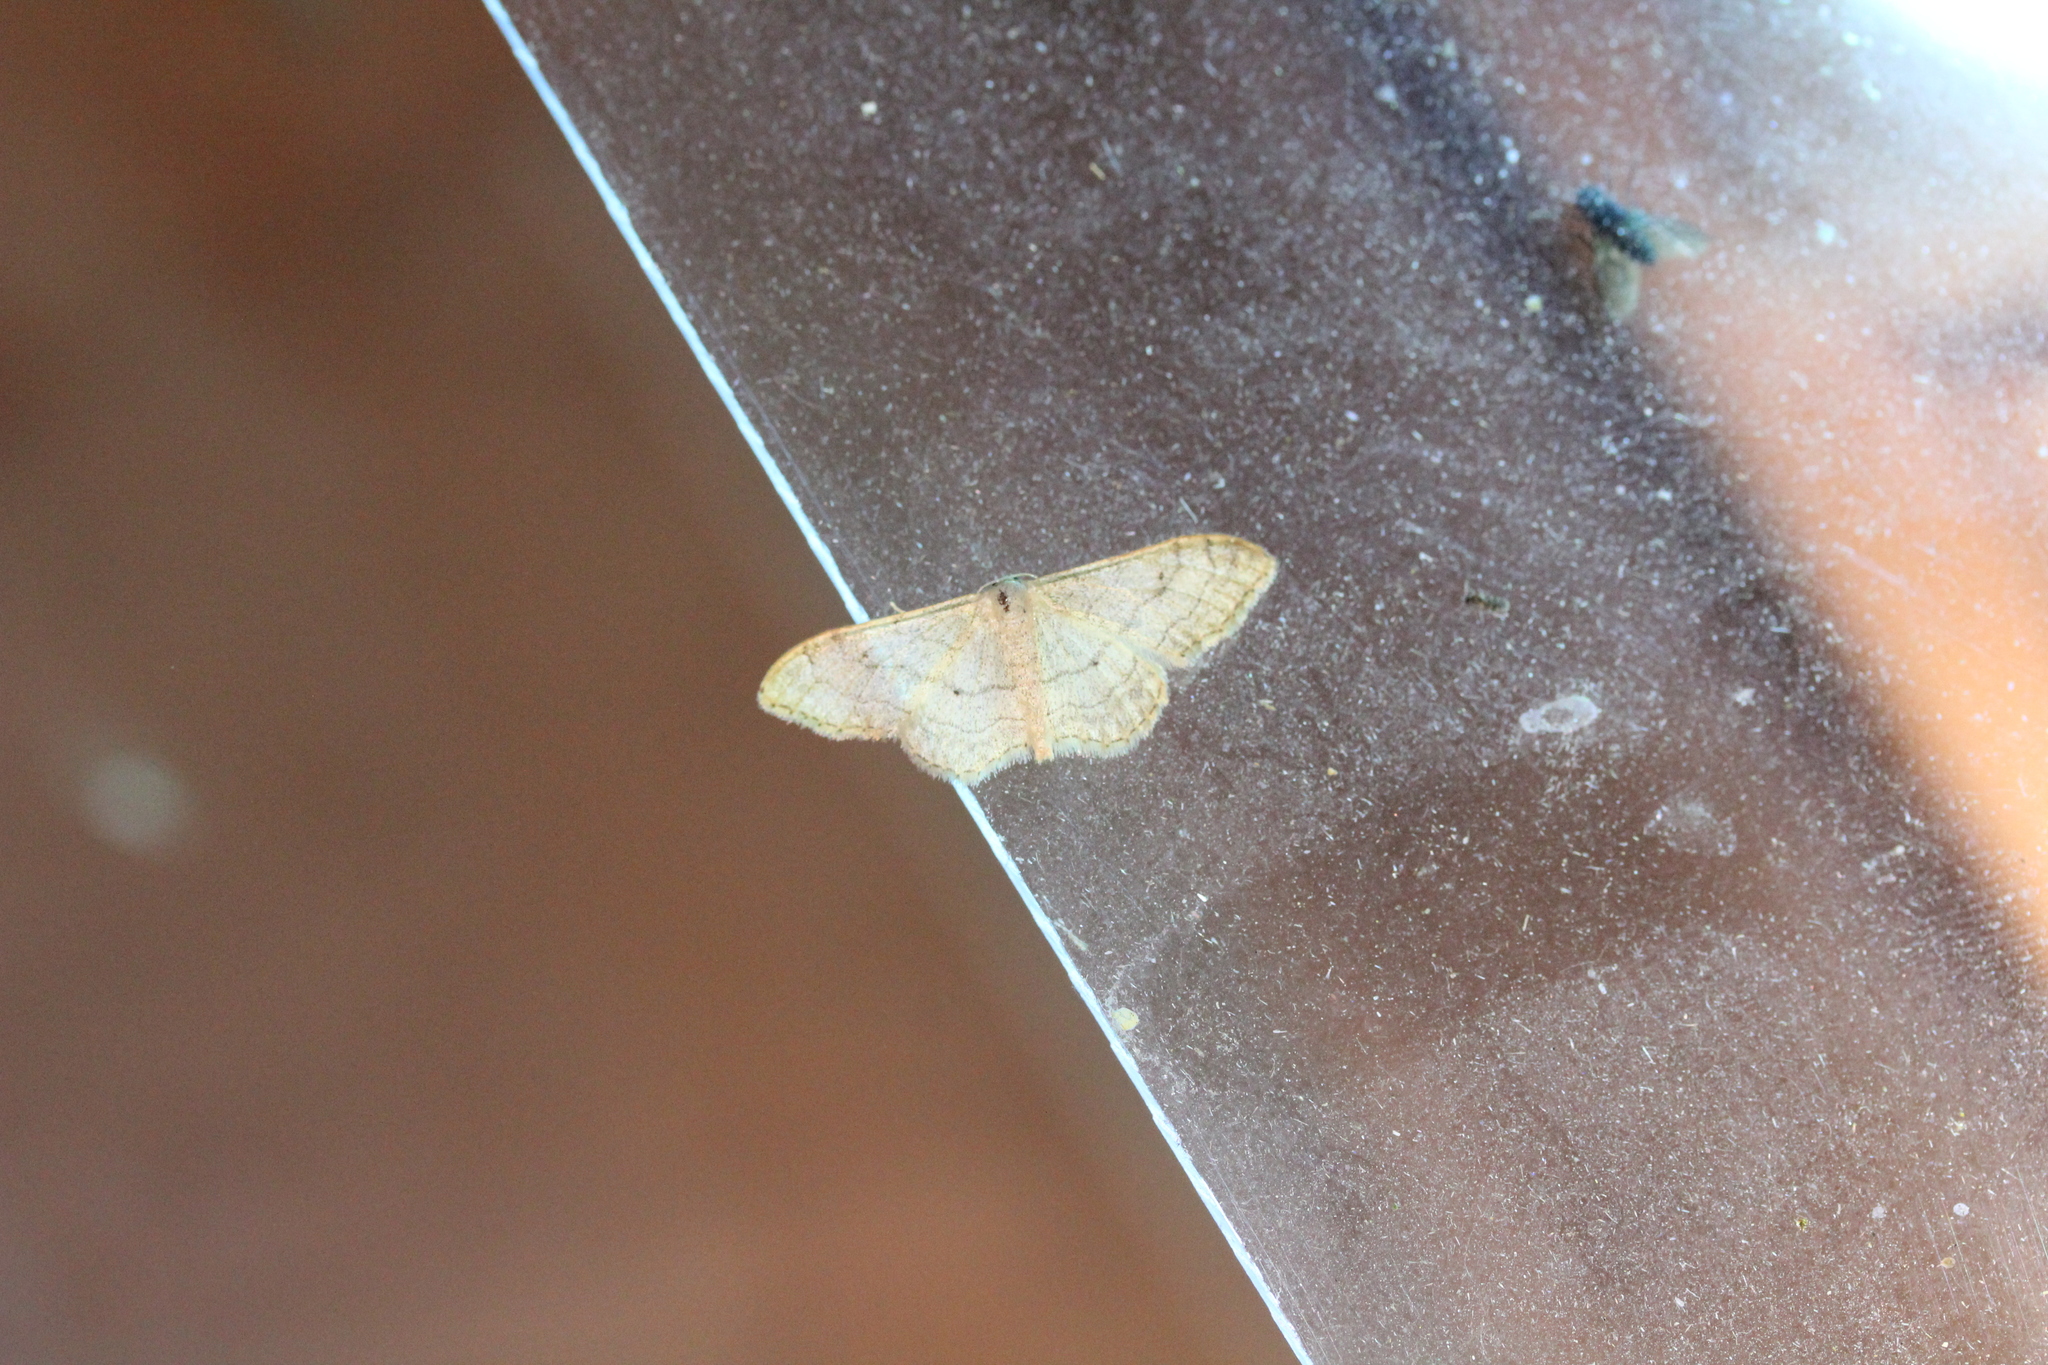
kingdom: Animalia
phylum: Arthropoda
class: Insecta
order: Lepidoptera
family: Geometridae
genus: Idaea
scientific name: Idaea aversata
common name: Riband wave
